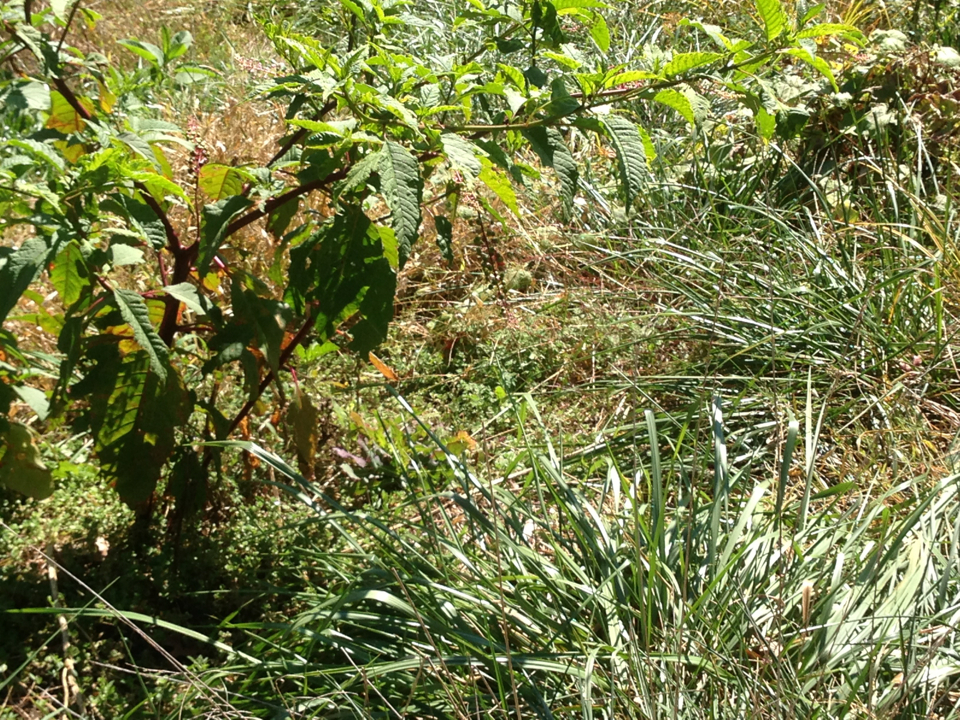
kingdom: Plantae
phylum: Tracheophyta
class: Magnoliopsida
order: Caryophyllales
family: Phytolaccaceae
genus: Phytolacca
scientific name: Phytolacca americana
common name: American pokeweed
